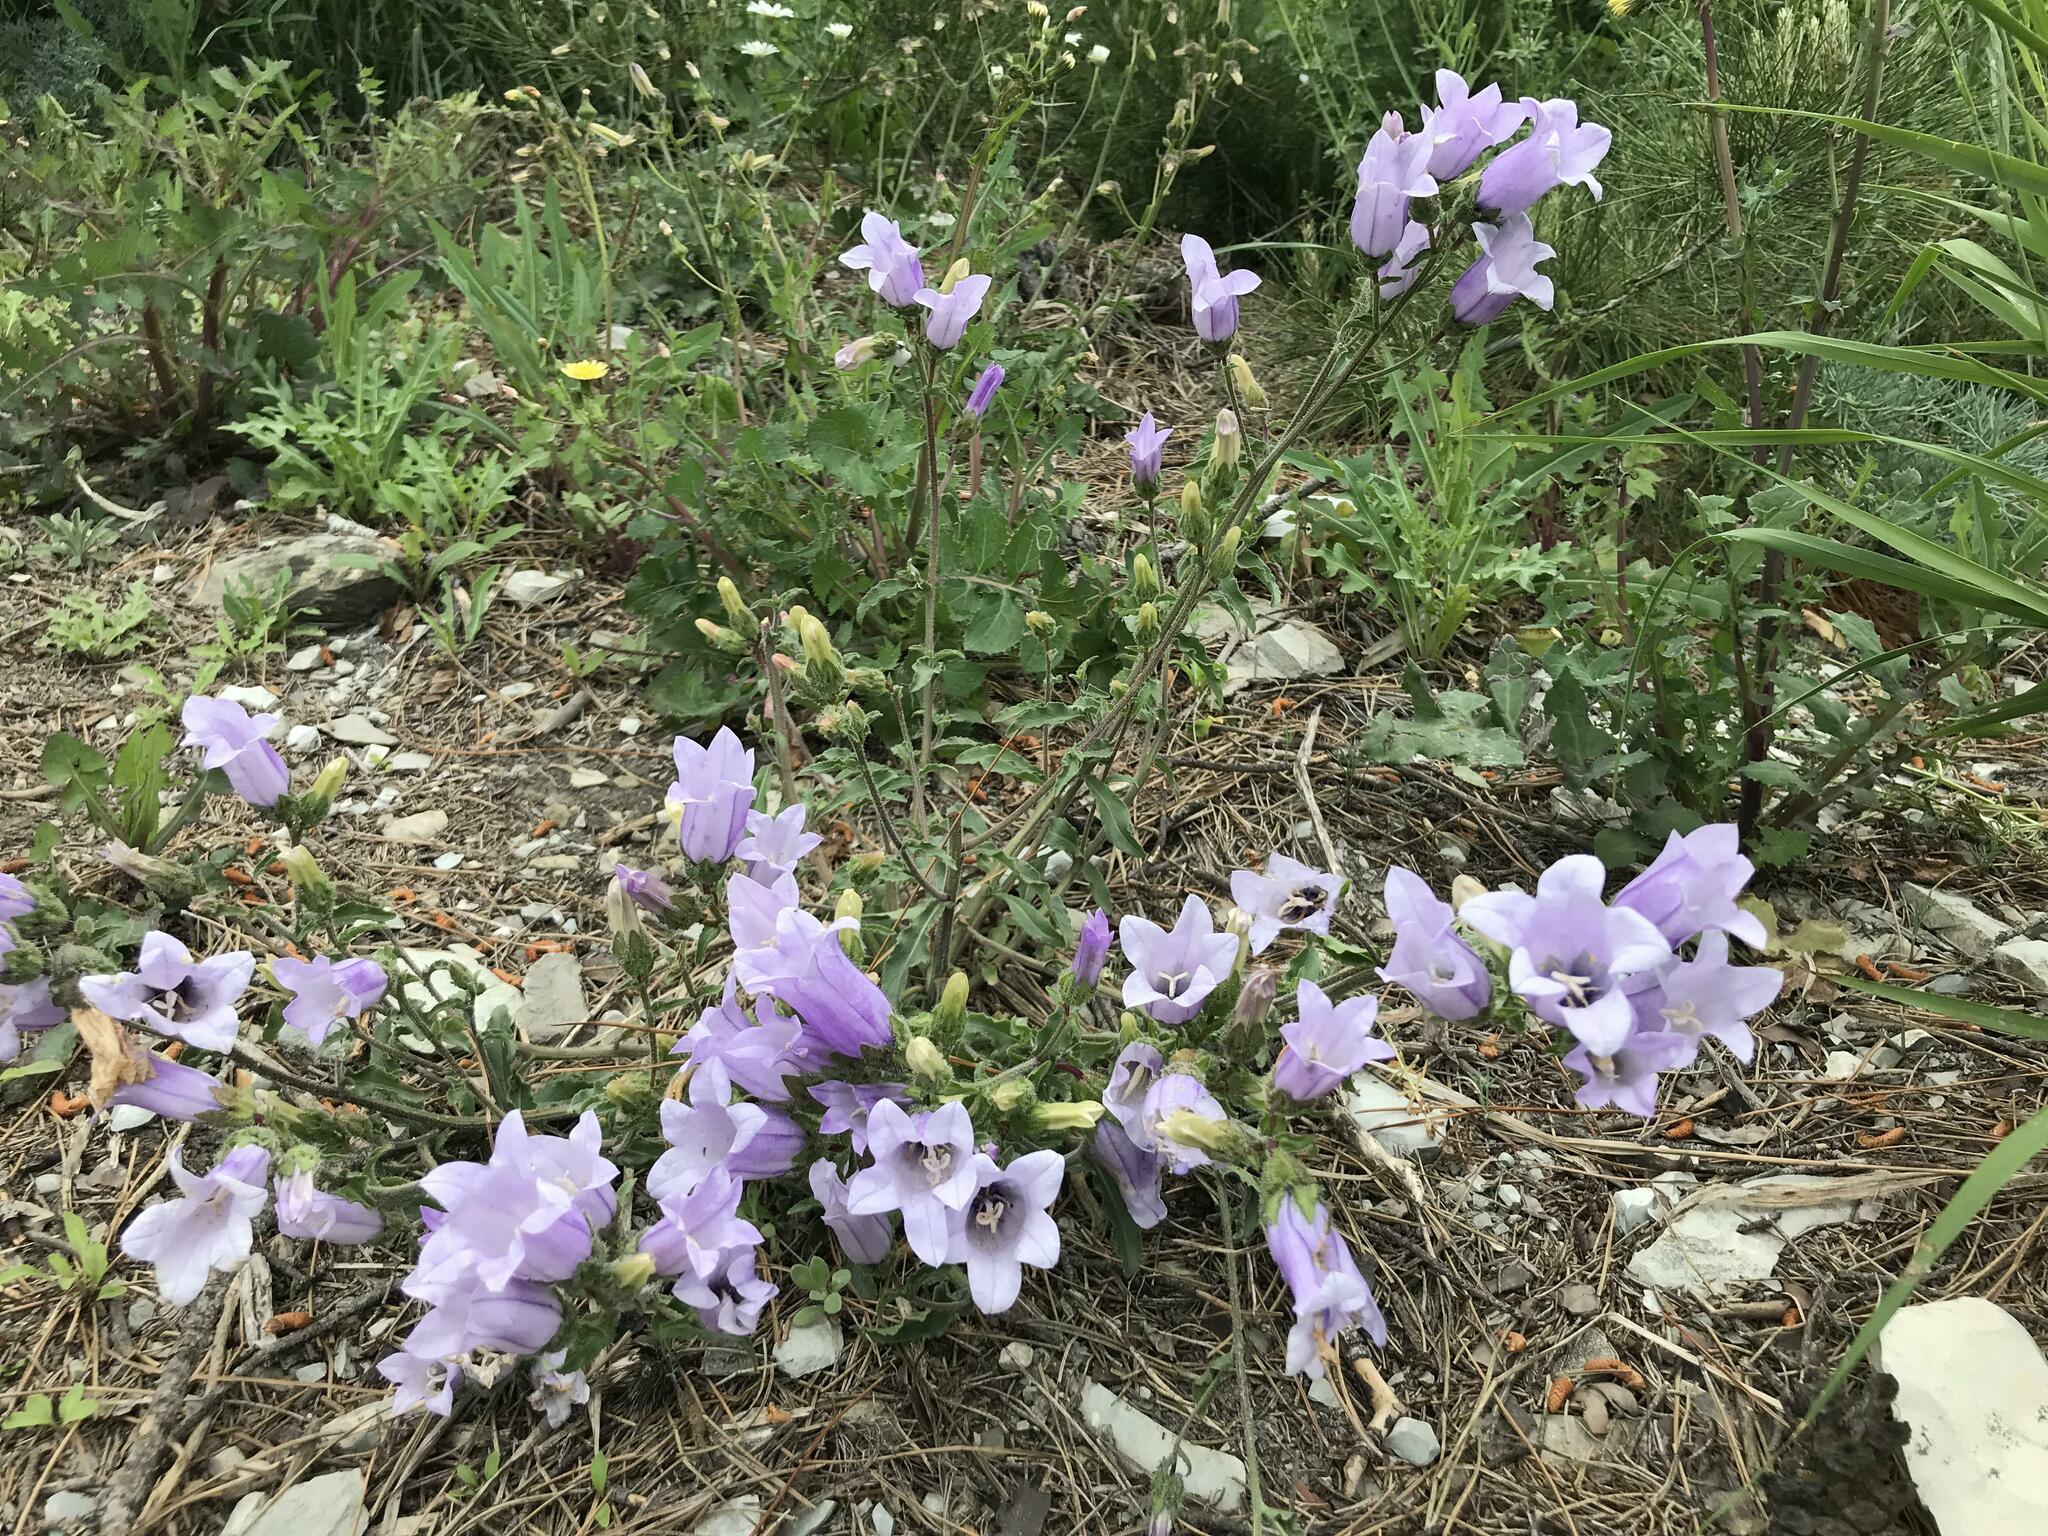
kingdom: Plantae
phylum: Tracheophyta
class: Magnoliopsida
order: Asterales
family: Campanulaceae
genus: Campanula
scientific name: Campanula komarovii
